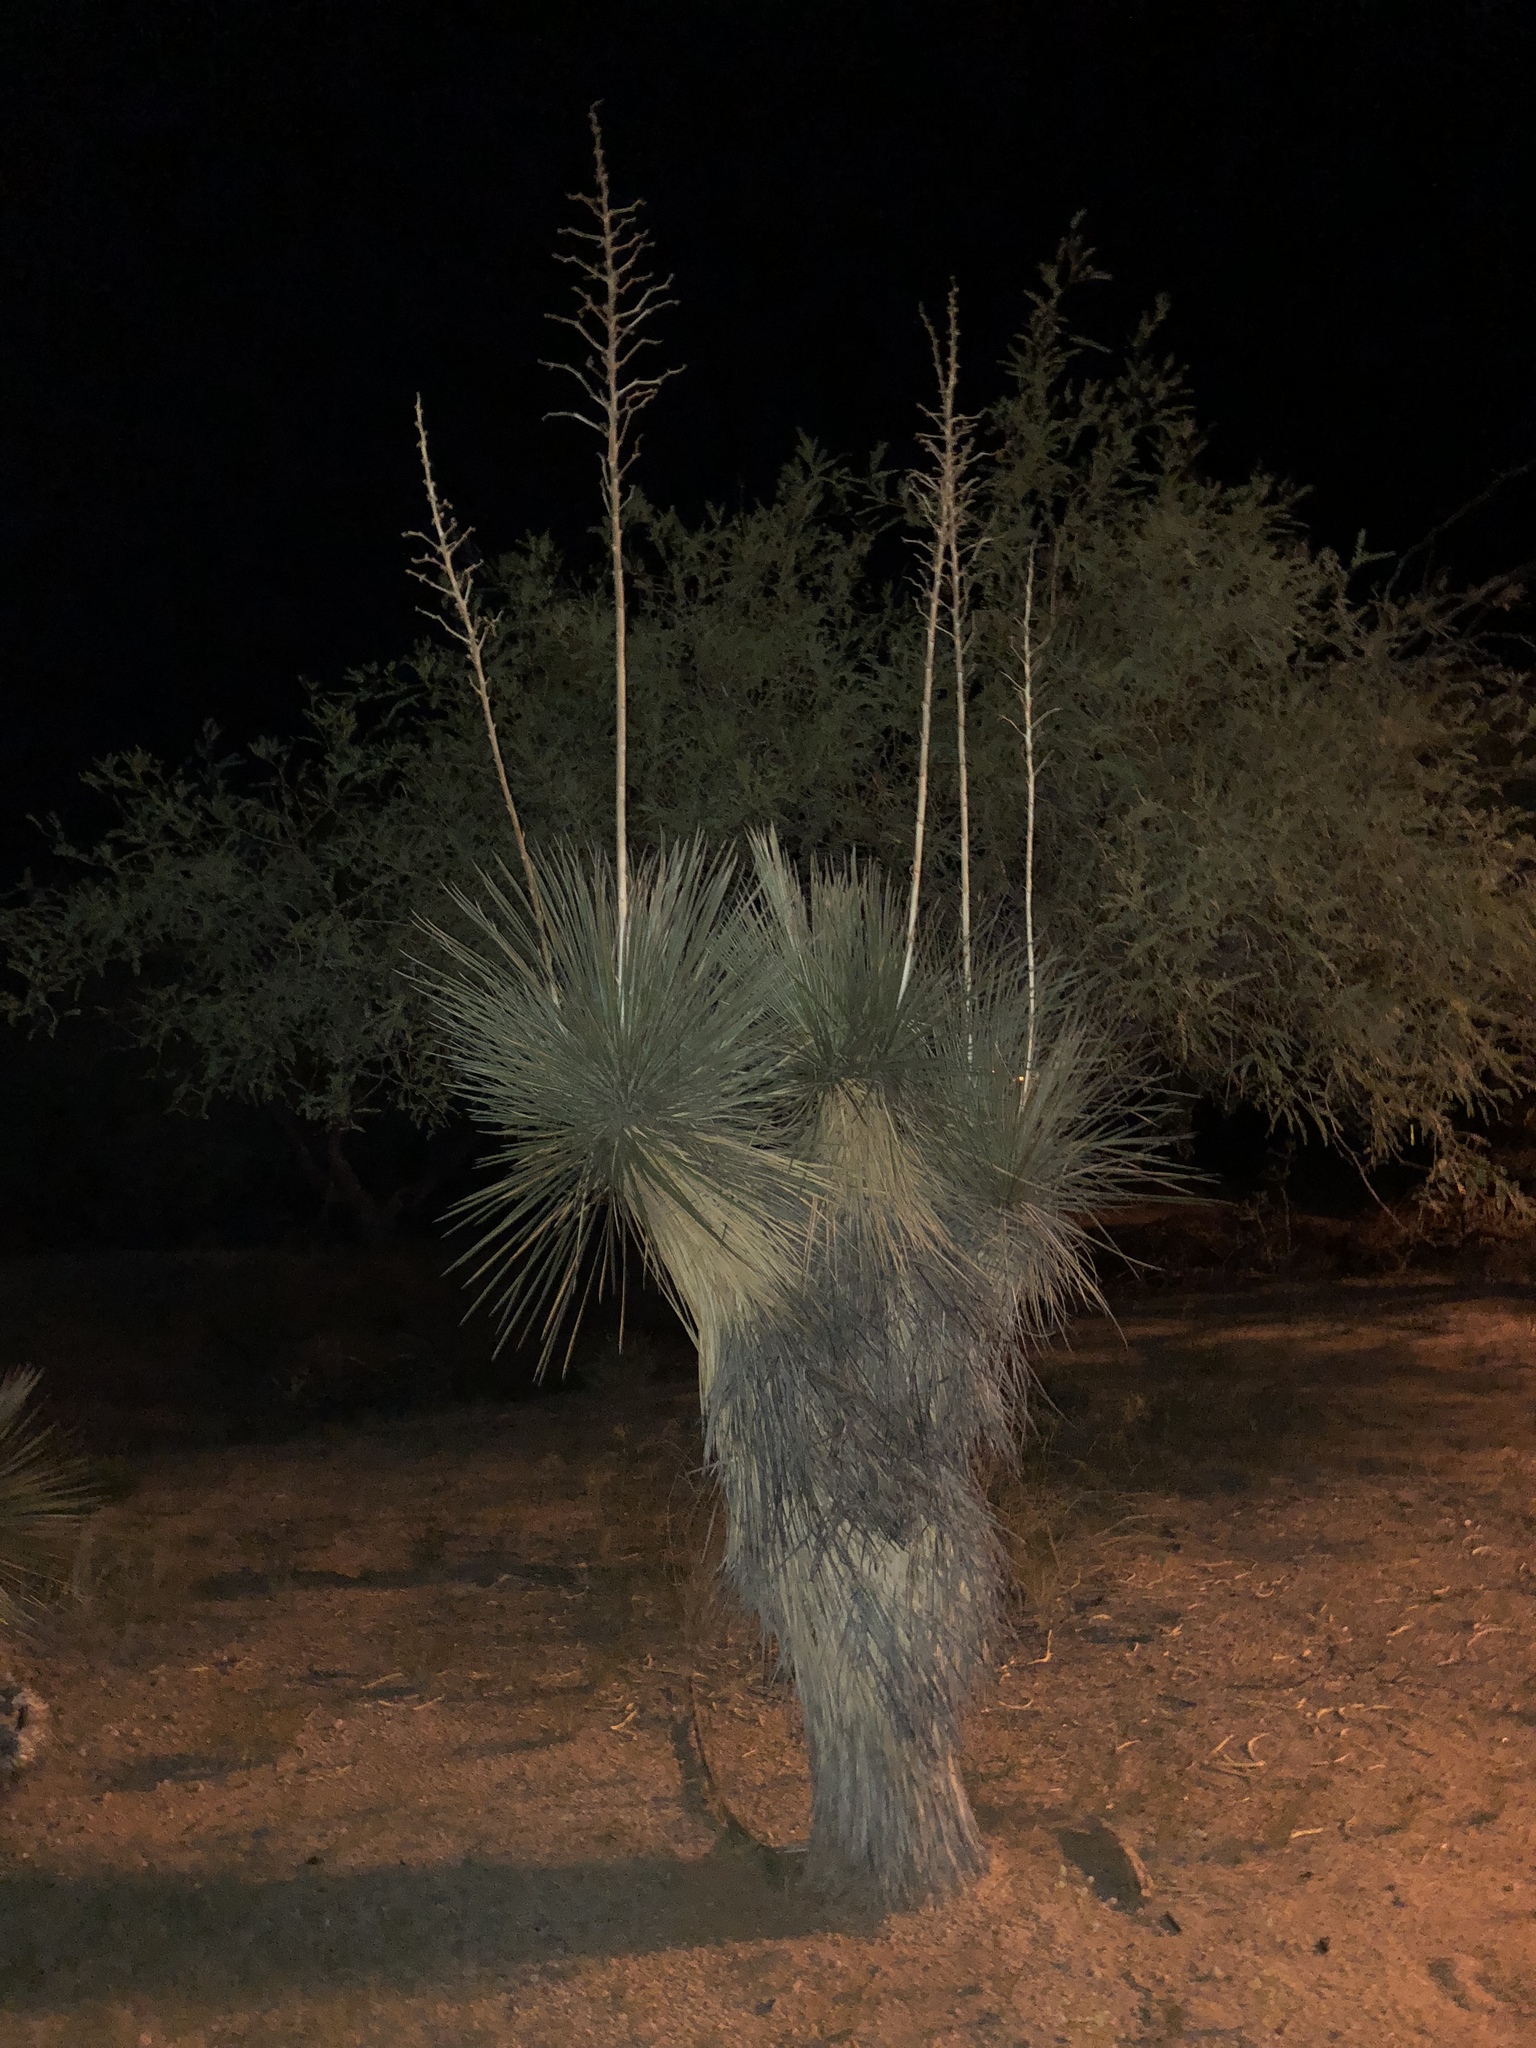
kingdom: Plantae
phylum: Tracheophyta
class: Liliopsida
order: Asparagales
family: Asparagaceae
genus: Yucca
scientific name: Yucca elata
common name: Palmella
